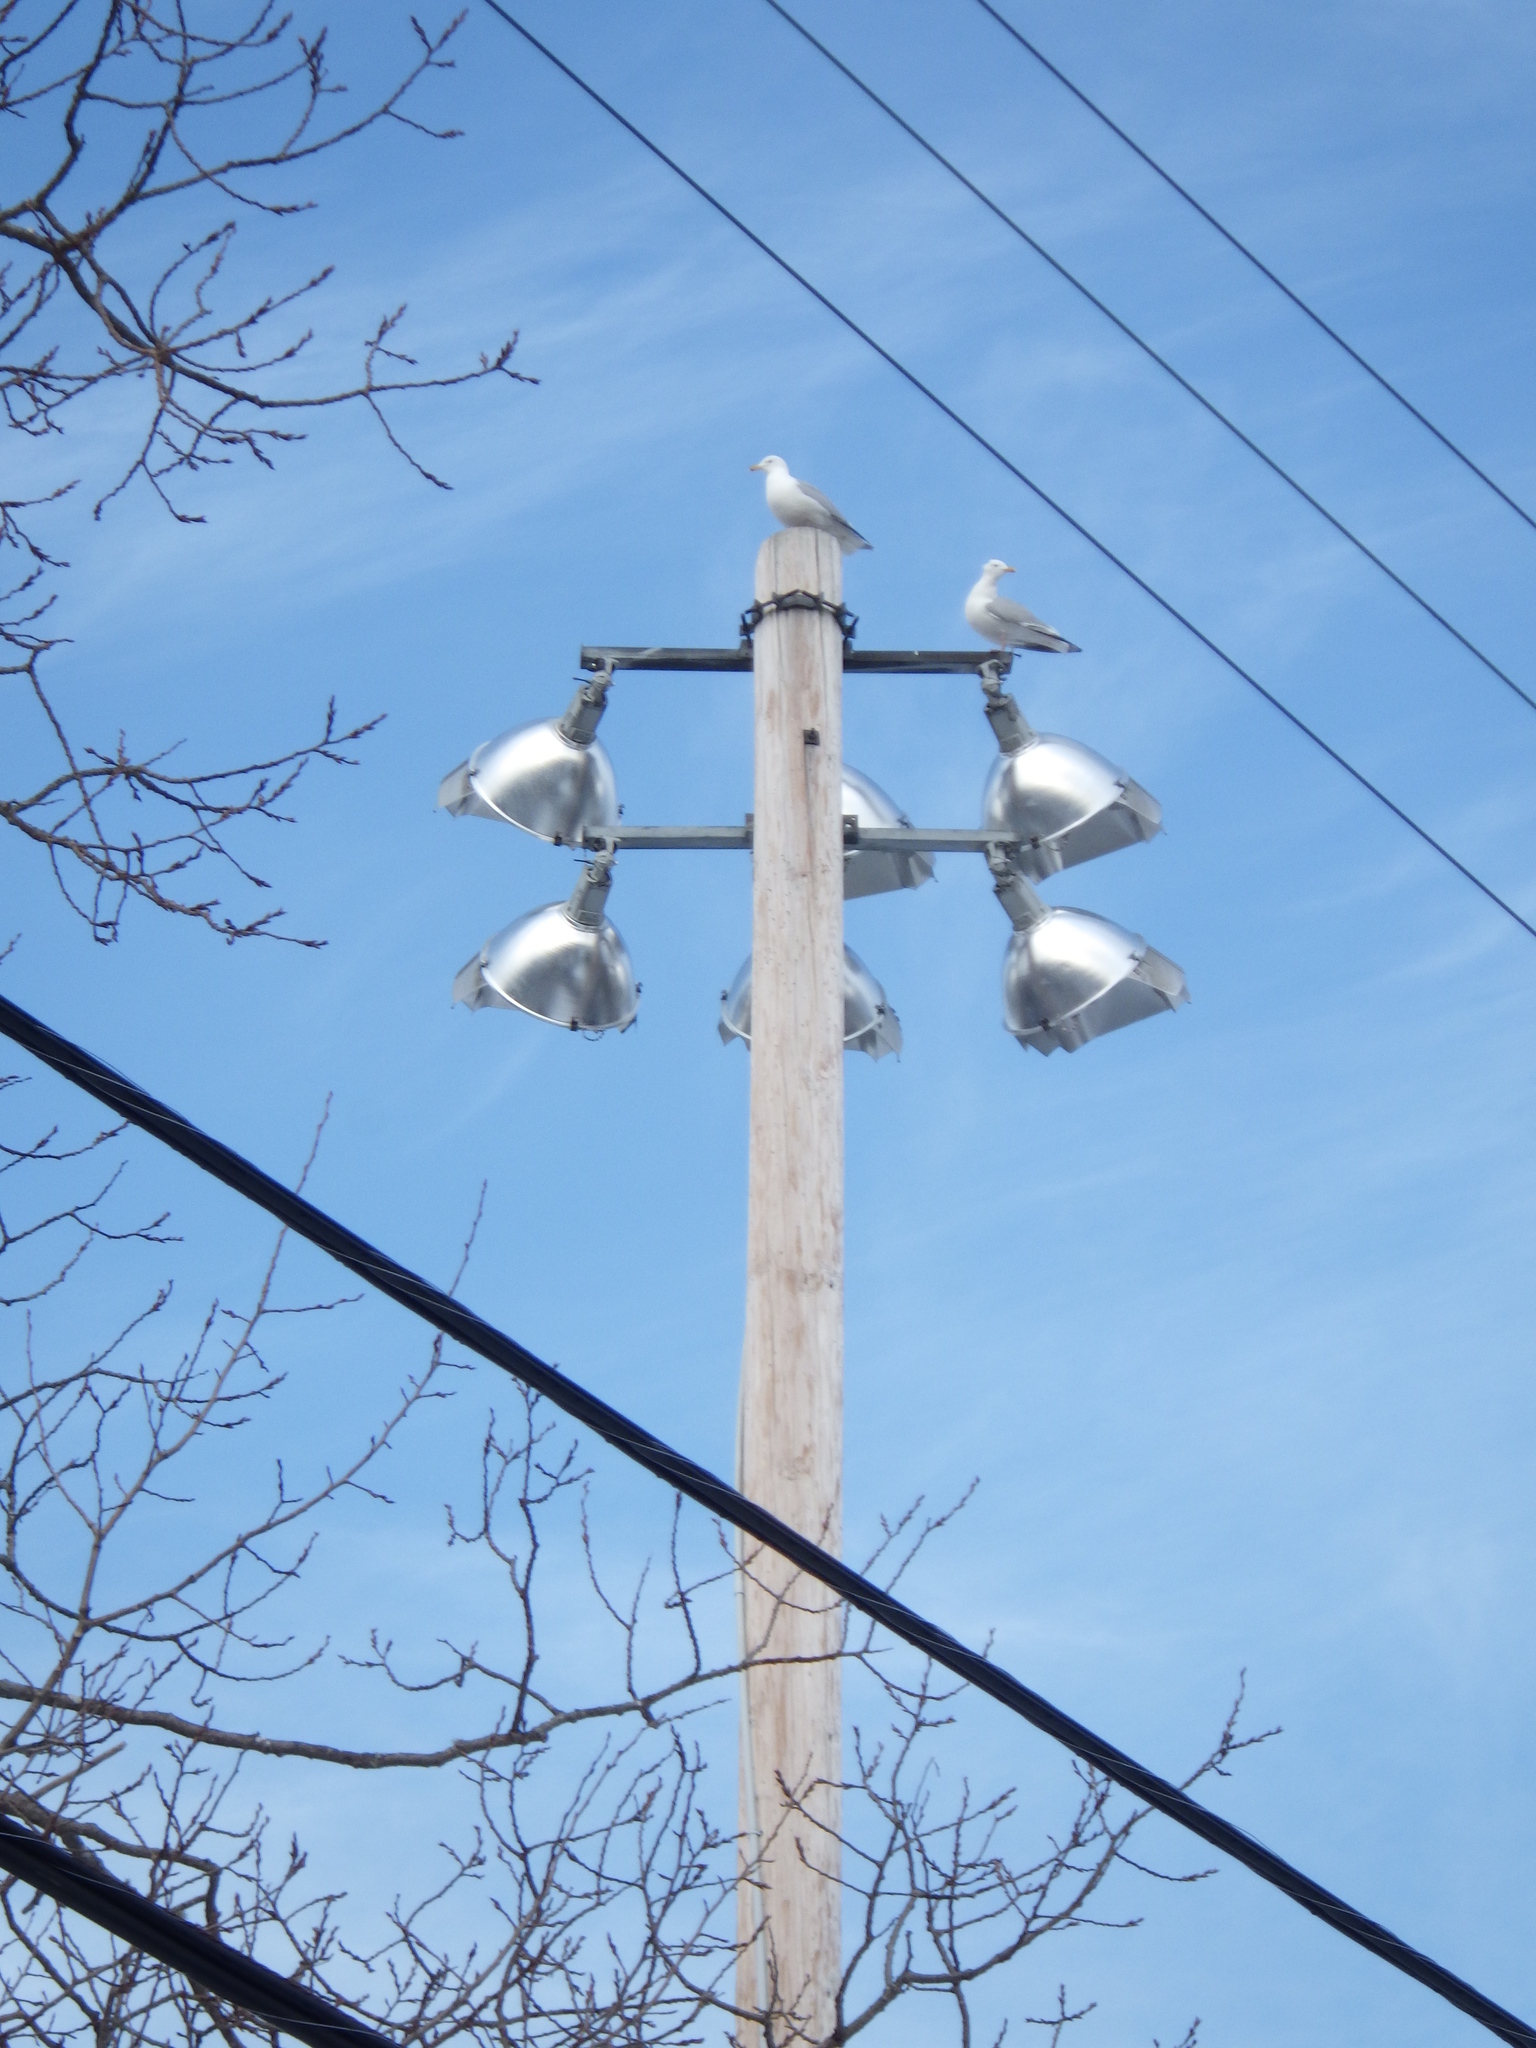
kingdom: Animalia
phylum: Chordata
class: Aves
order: Charadriiformes
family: Laridae
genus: Larus
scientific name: Larus argentatus
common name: Herring gull
